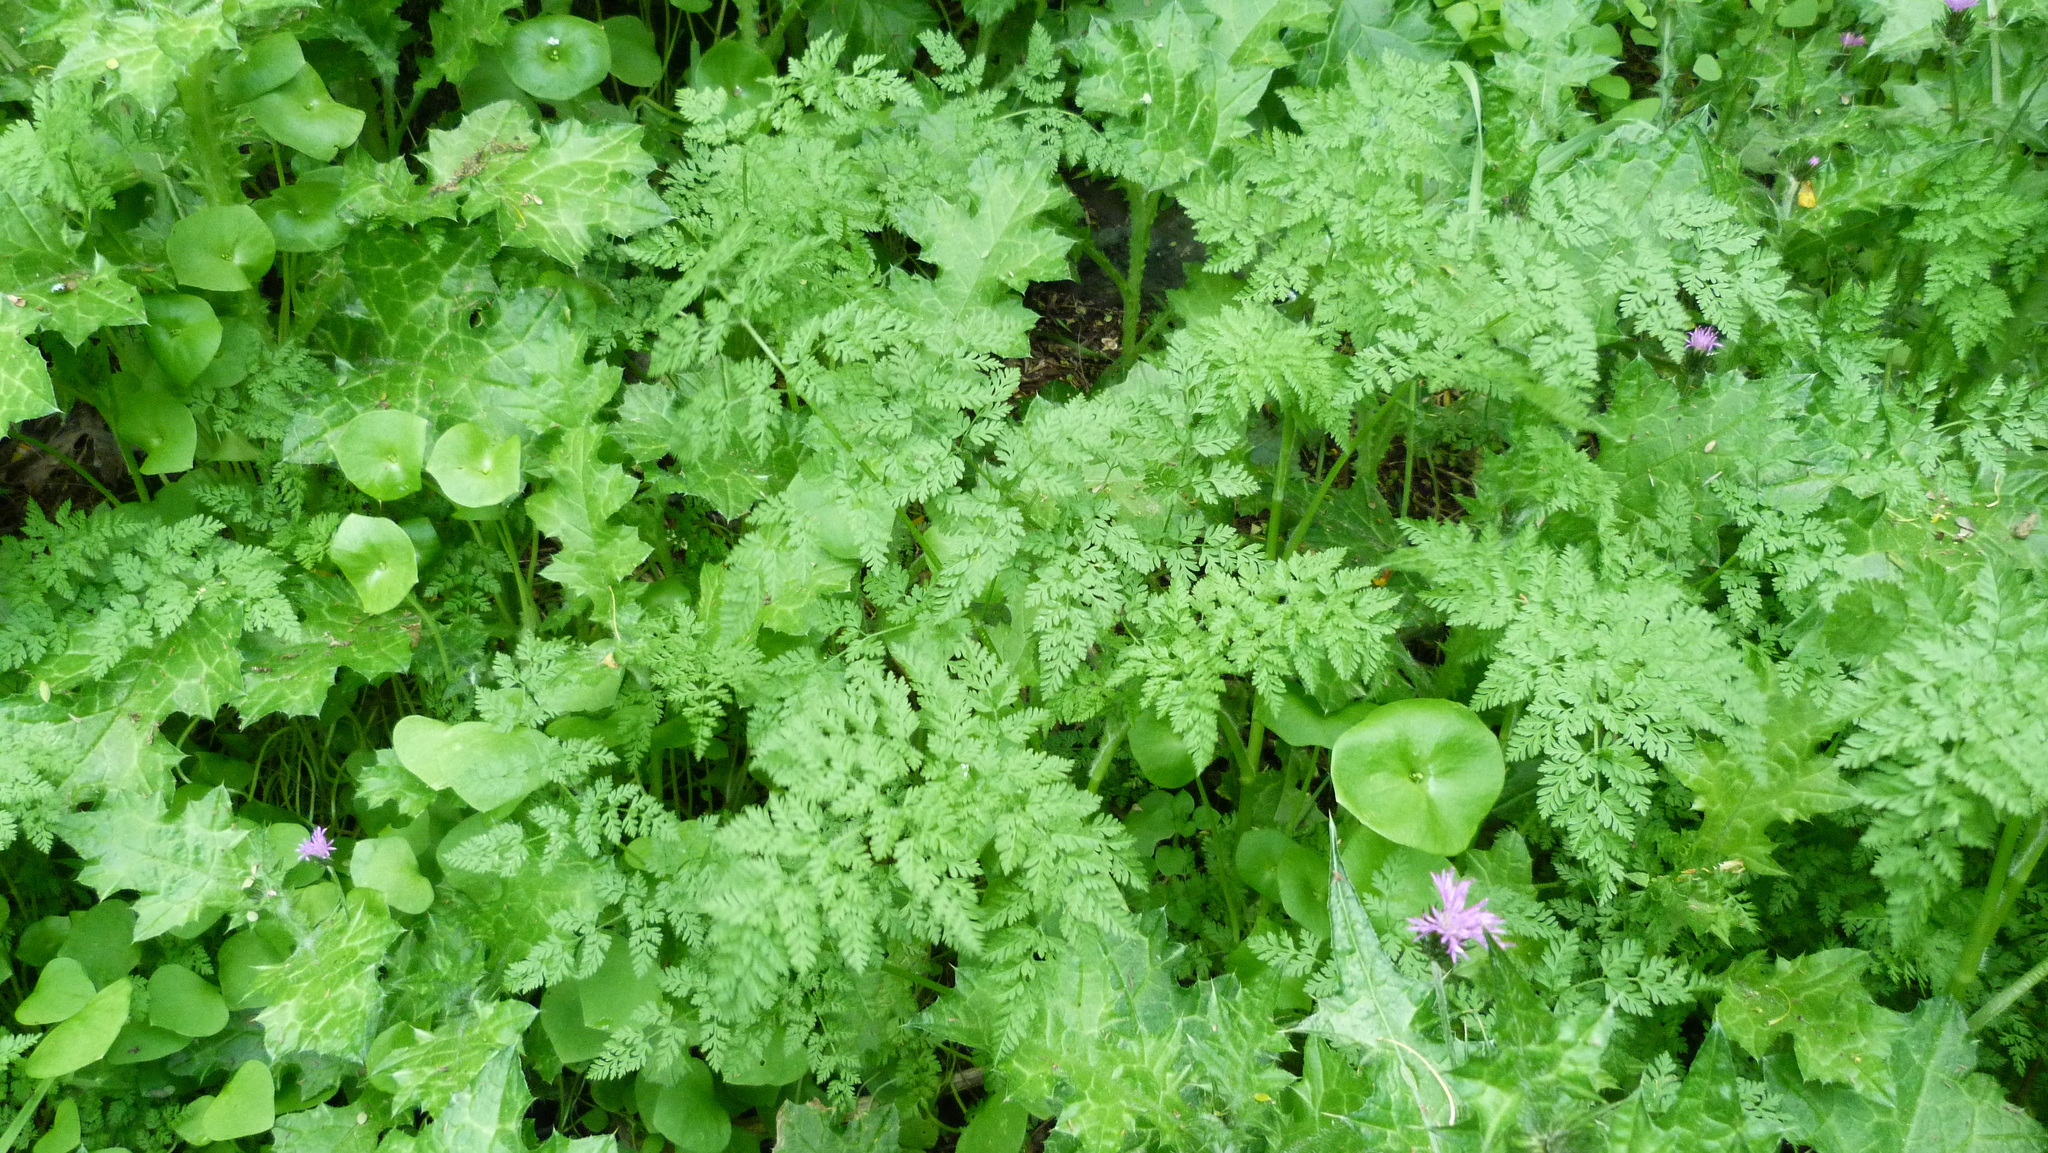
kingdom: Plantae
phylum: Tracheophyta
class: Magnoliopsida
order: Apiales
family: Apiaceae
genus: Anthriscus
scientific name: Anthriscus caucalis
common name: Bur chervil
